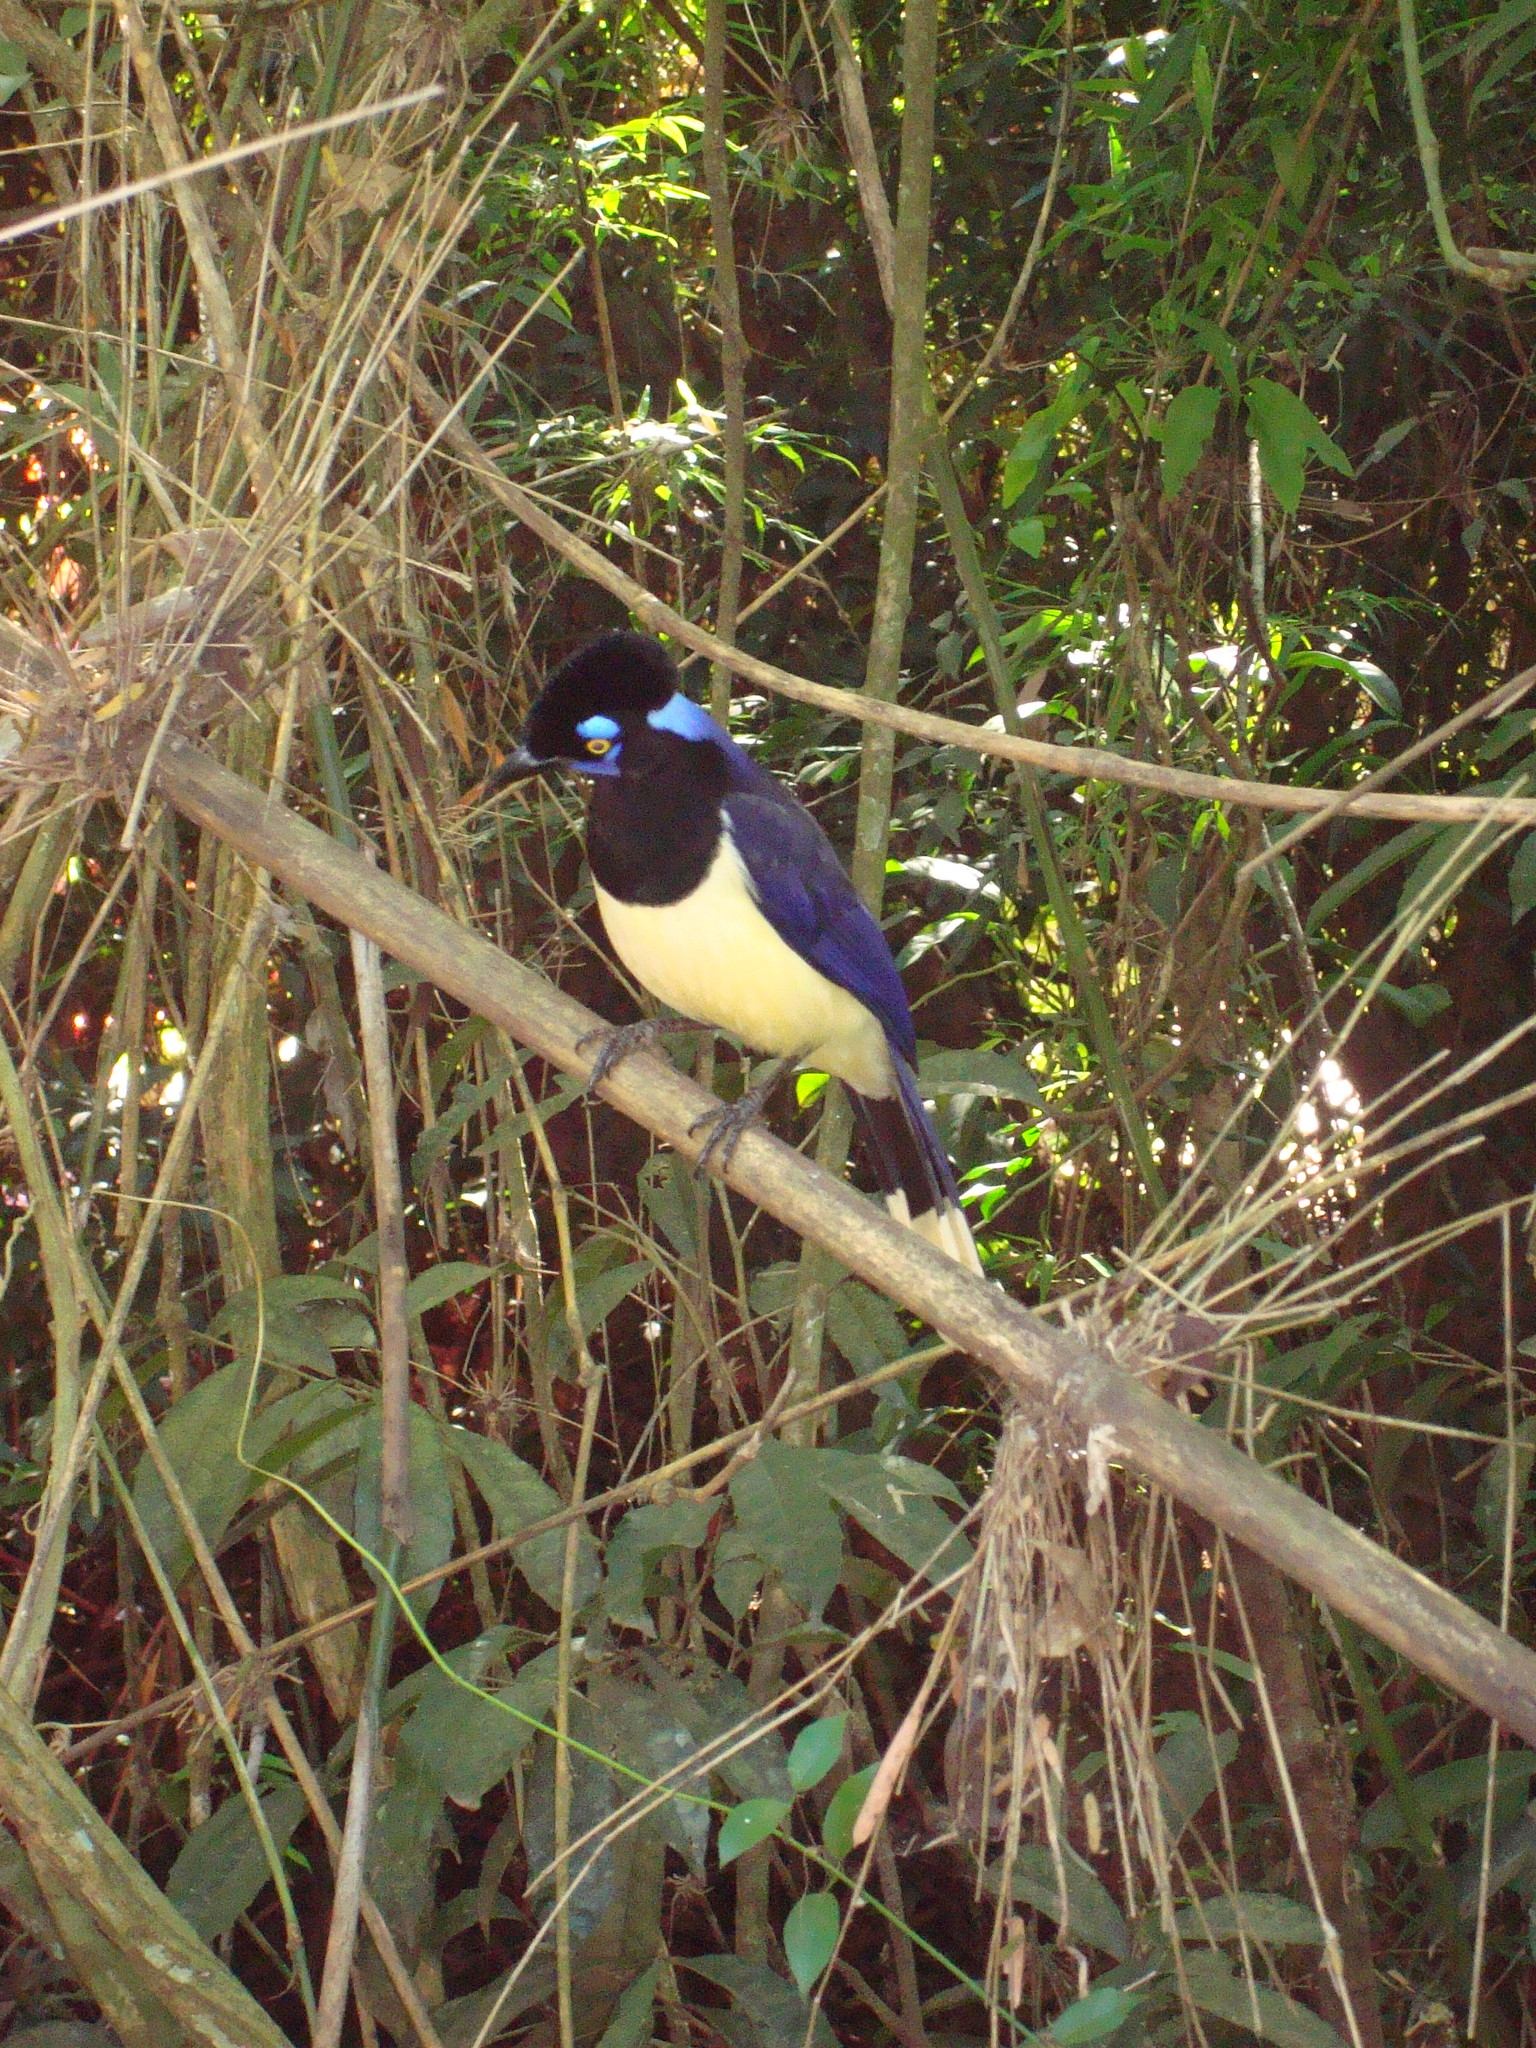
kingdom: Animalia
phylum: Chordata
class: Aves
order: Passeriformes
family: Corvidae
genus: Cyanocorax
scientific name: Cyanocorax chrysops
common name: Plush-crested jay
